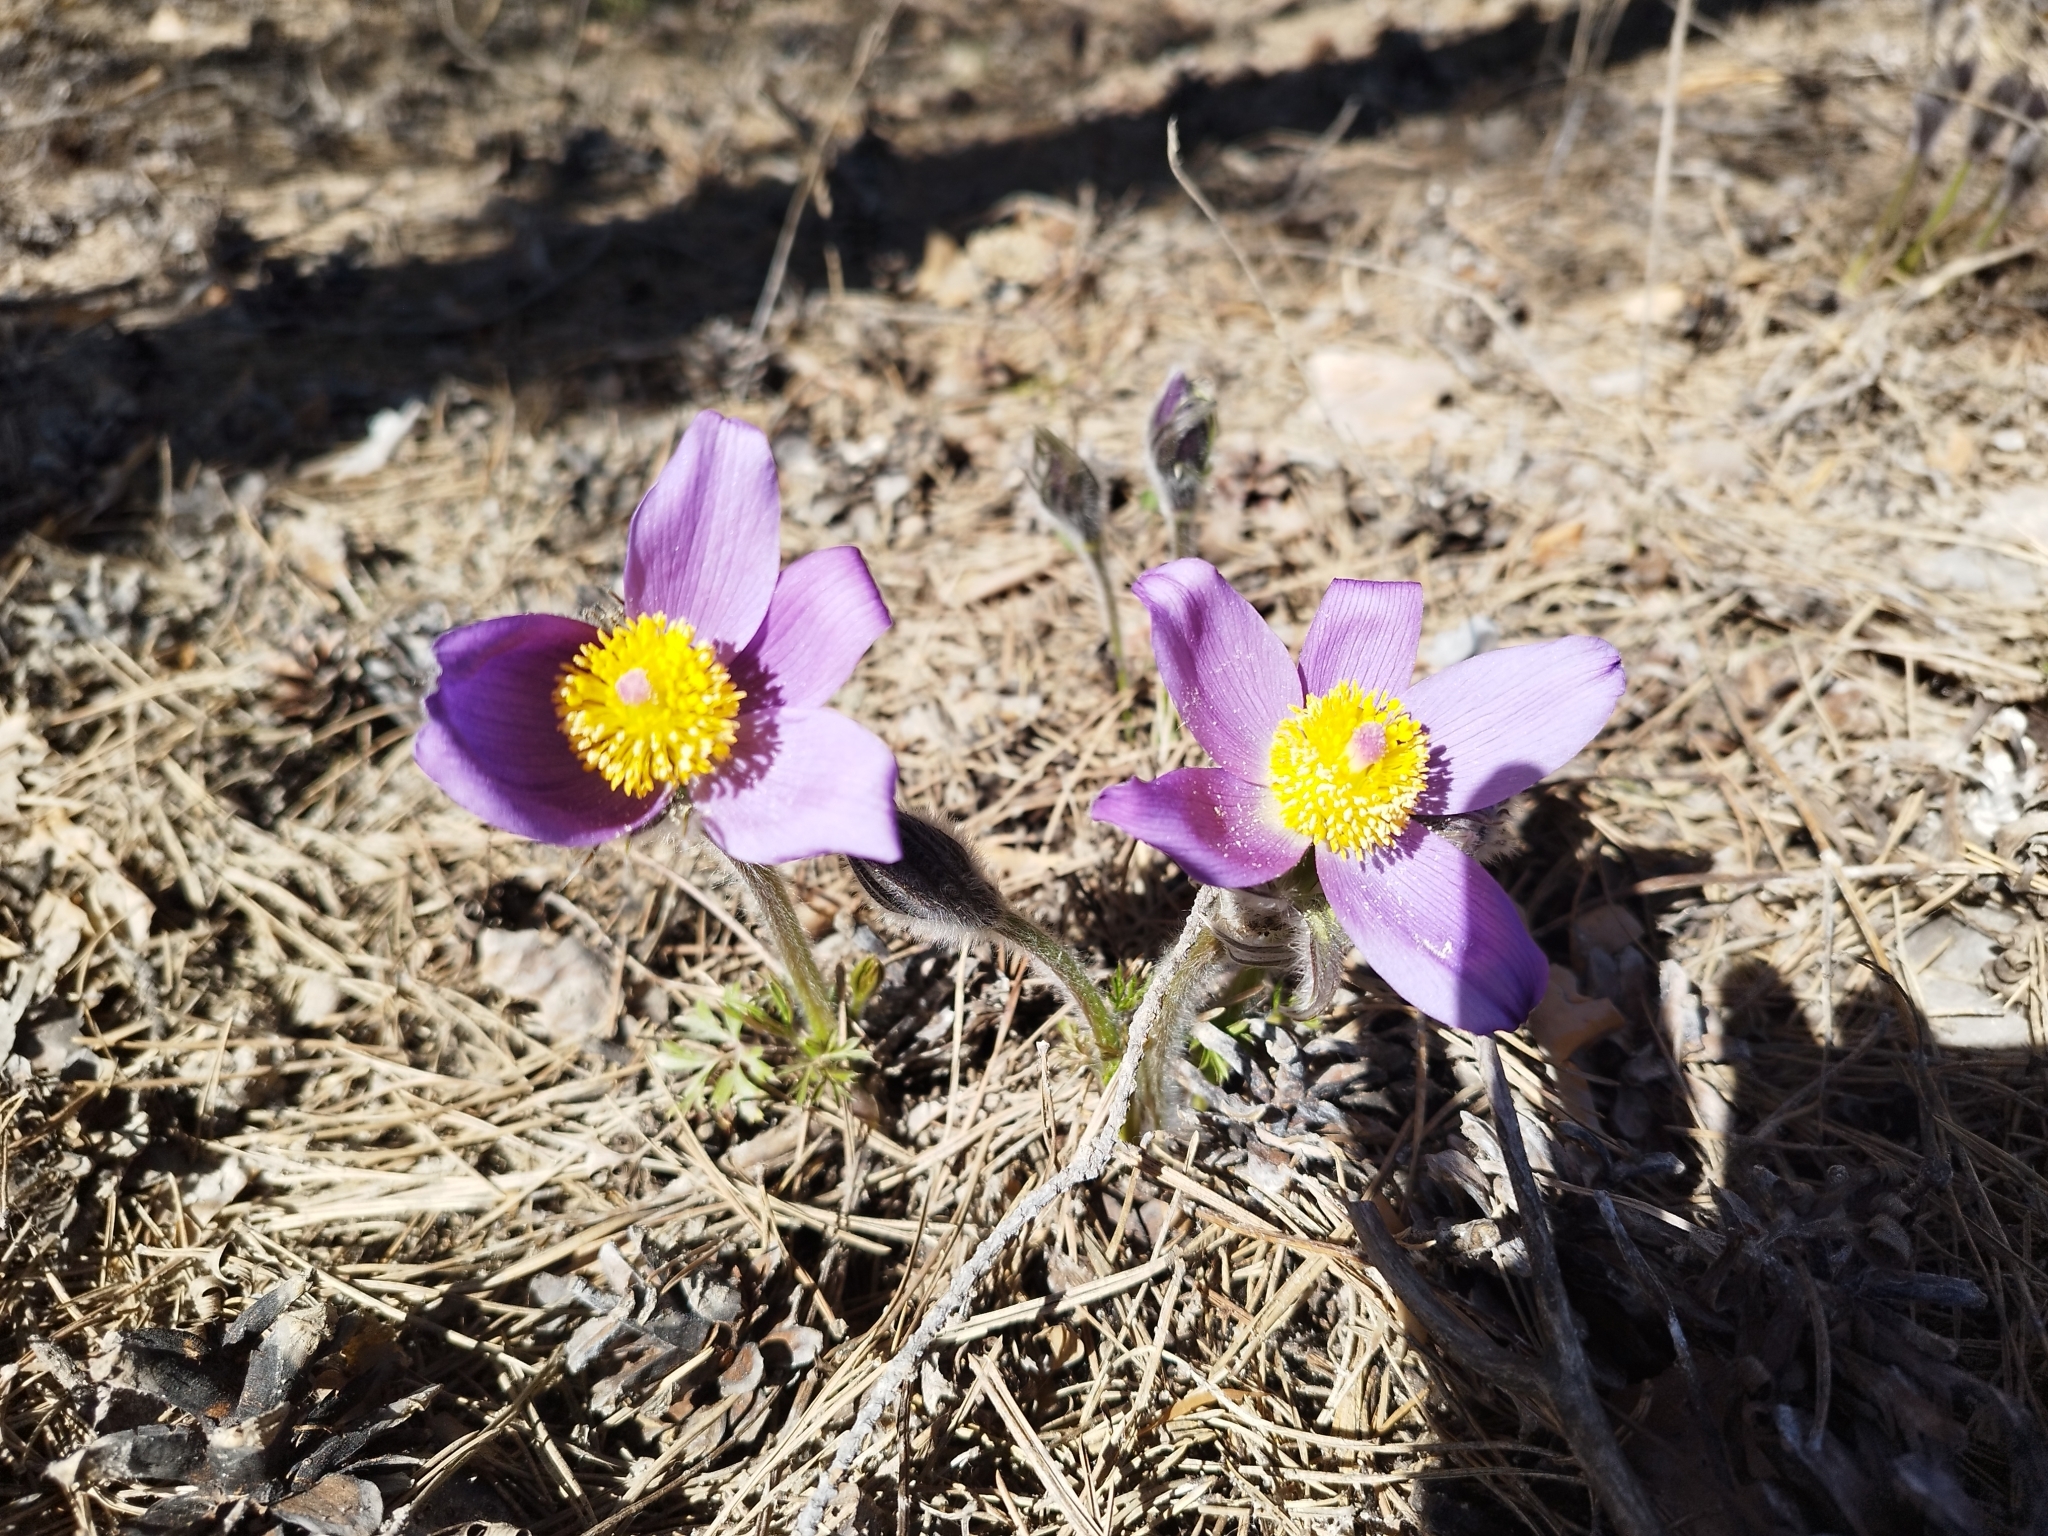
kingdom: Plantae
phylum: Tracheophyta
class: Magnoliopsida
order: Ranunculales
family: Ranunculaceae
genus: Pulsatilla
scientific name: Pulsatilla patens
